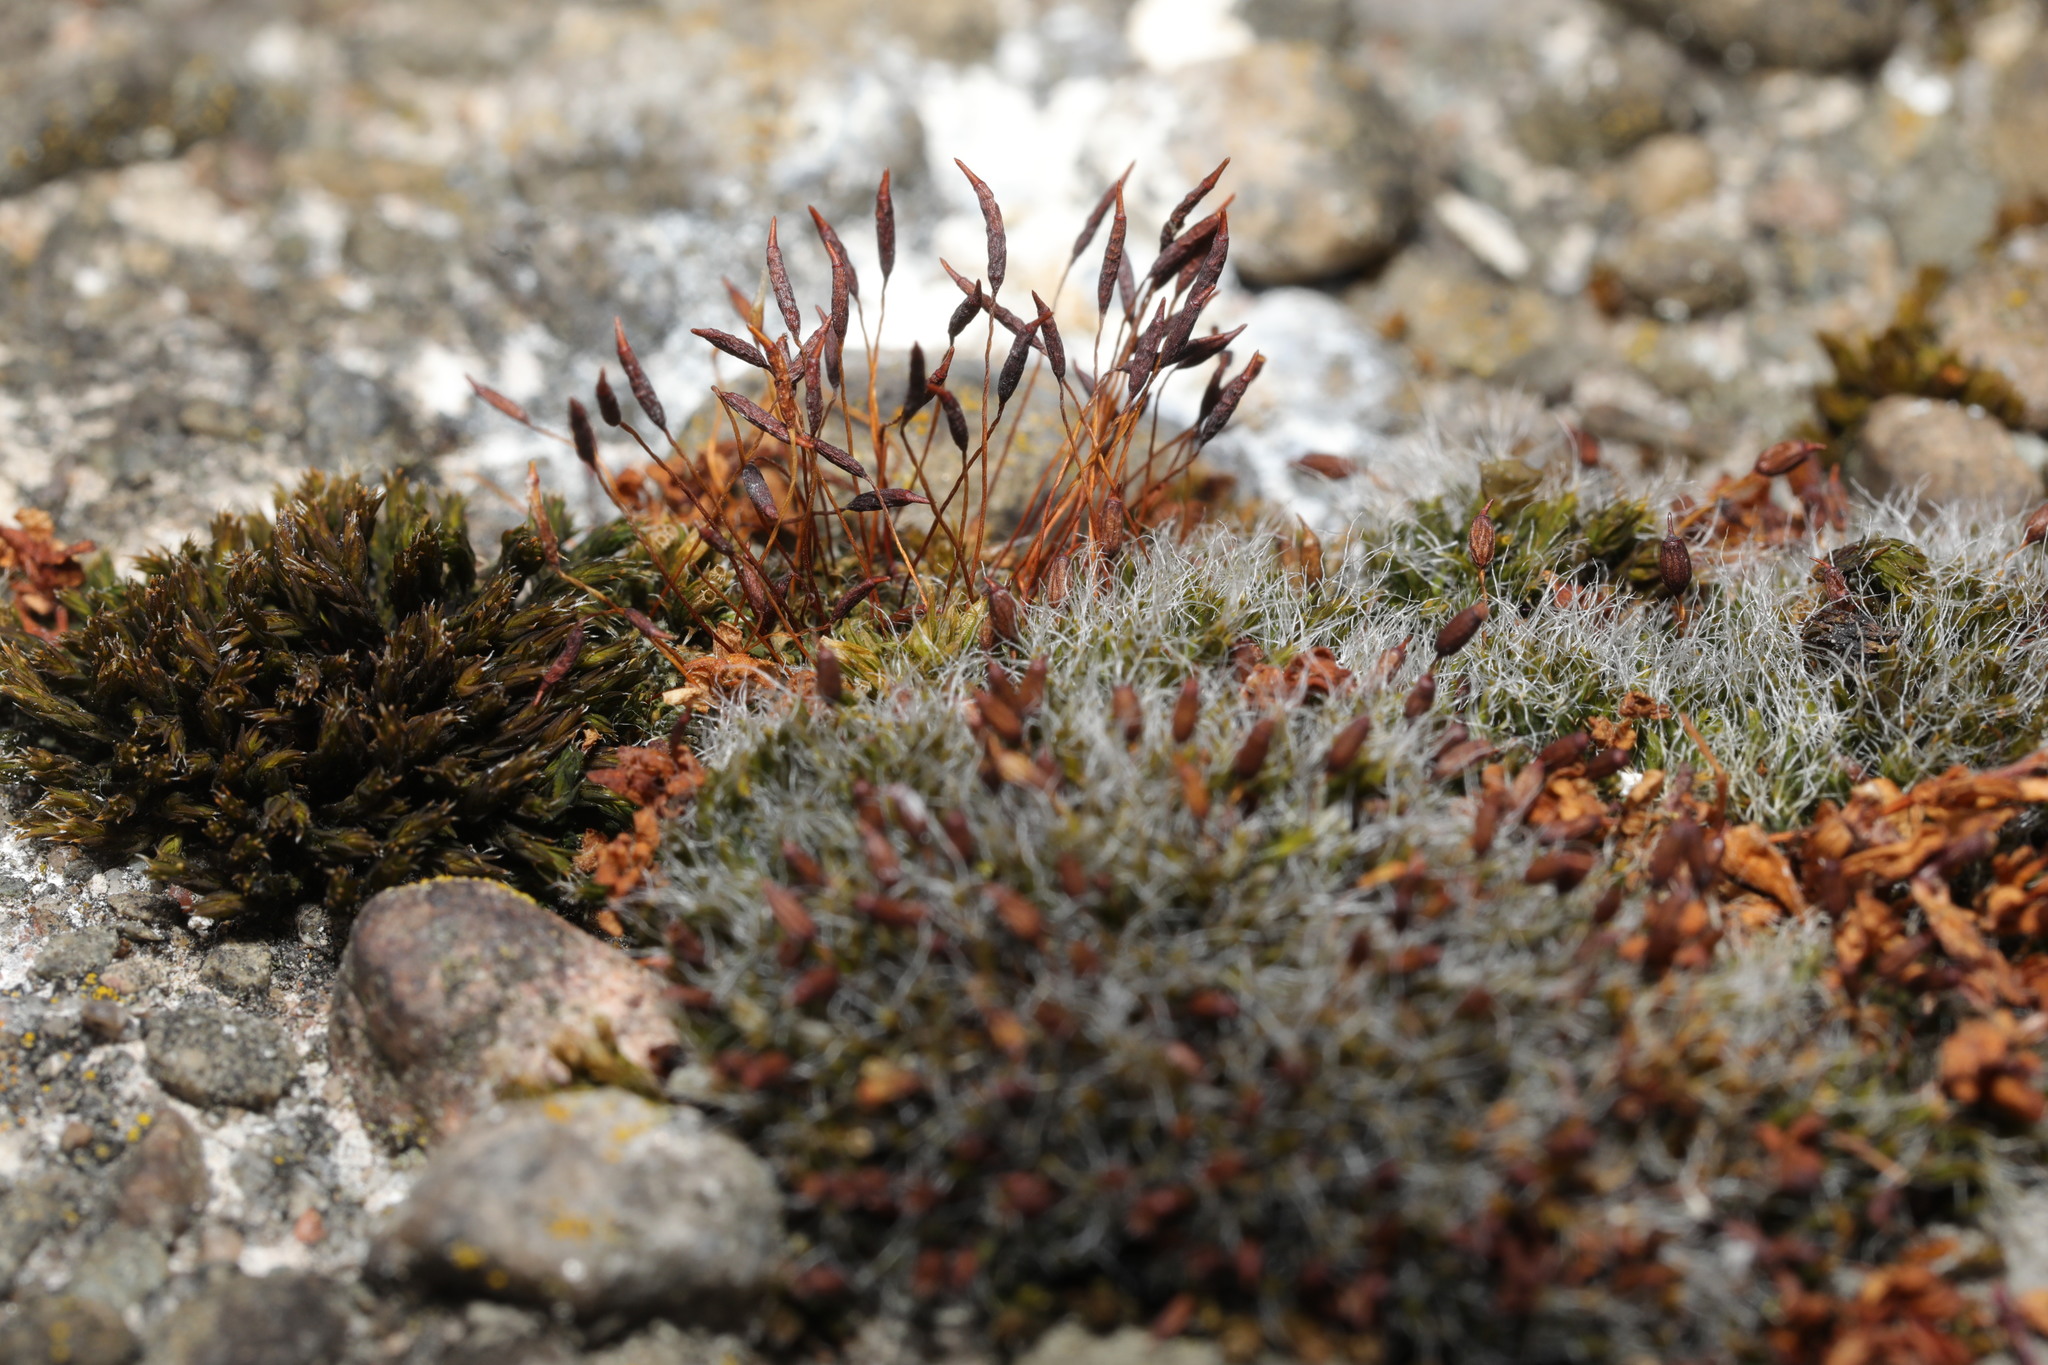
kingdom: Plantae
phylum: Bryophyta
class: Bryopsida
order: Pottiales
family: Pottiaceae
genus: Tortula
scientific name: Tortula muralis
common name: Wall screw-moss
